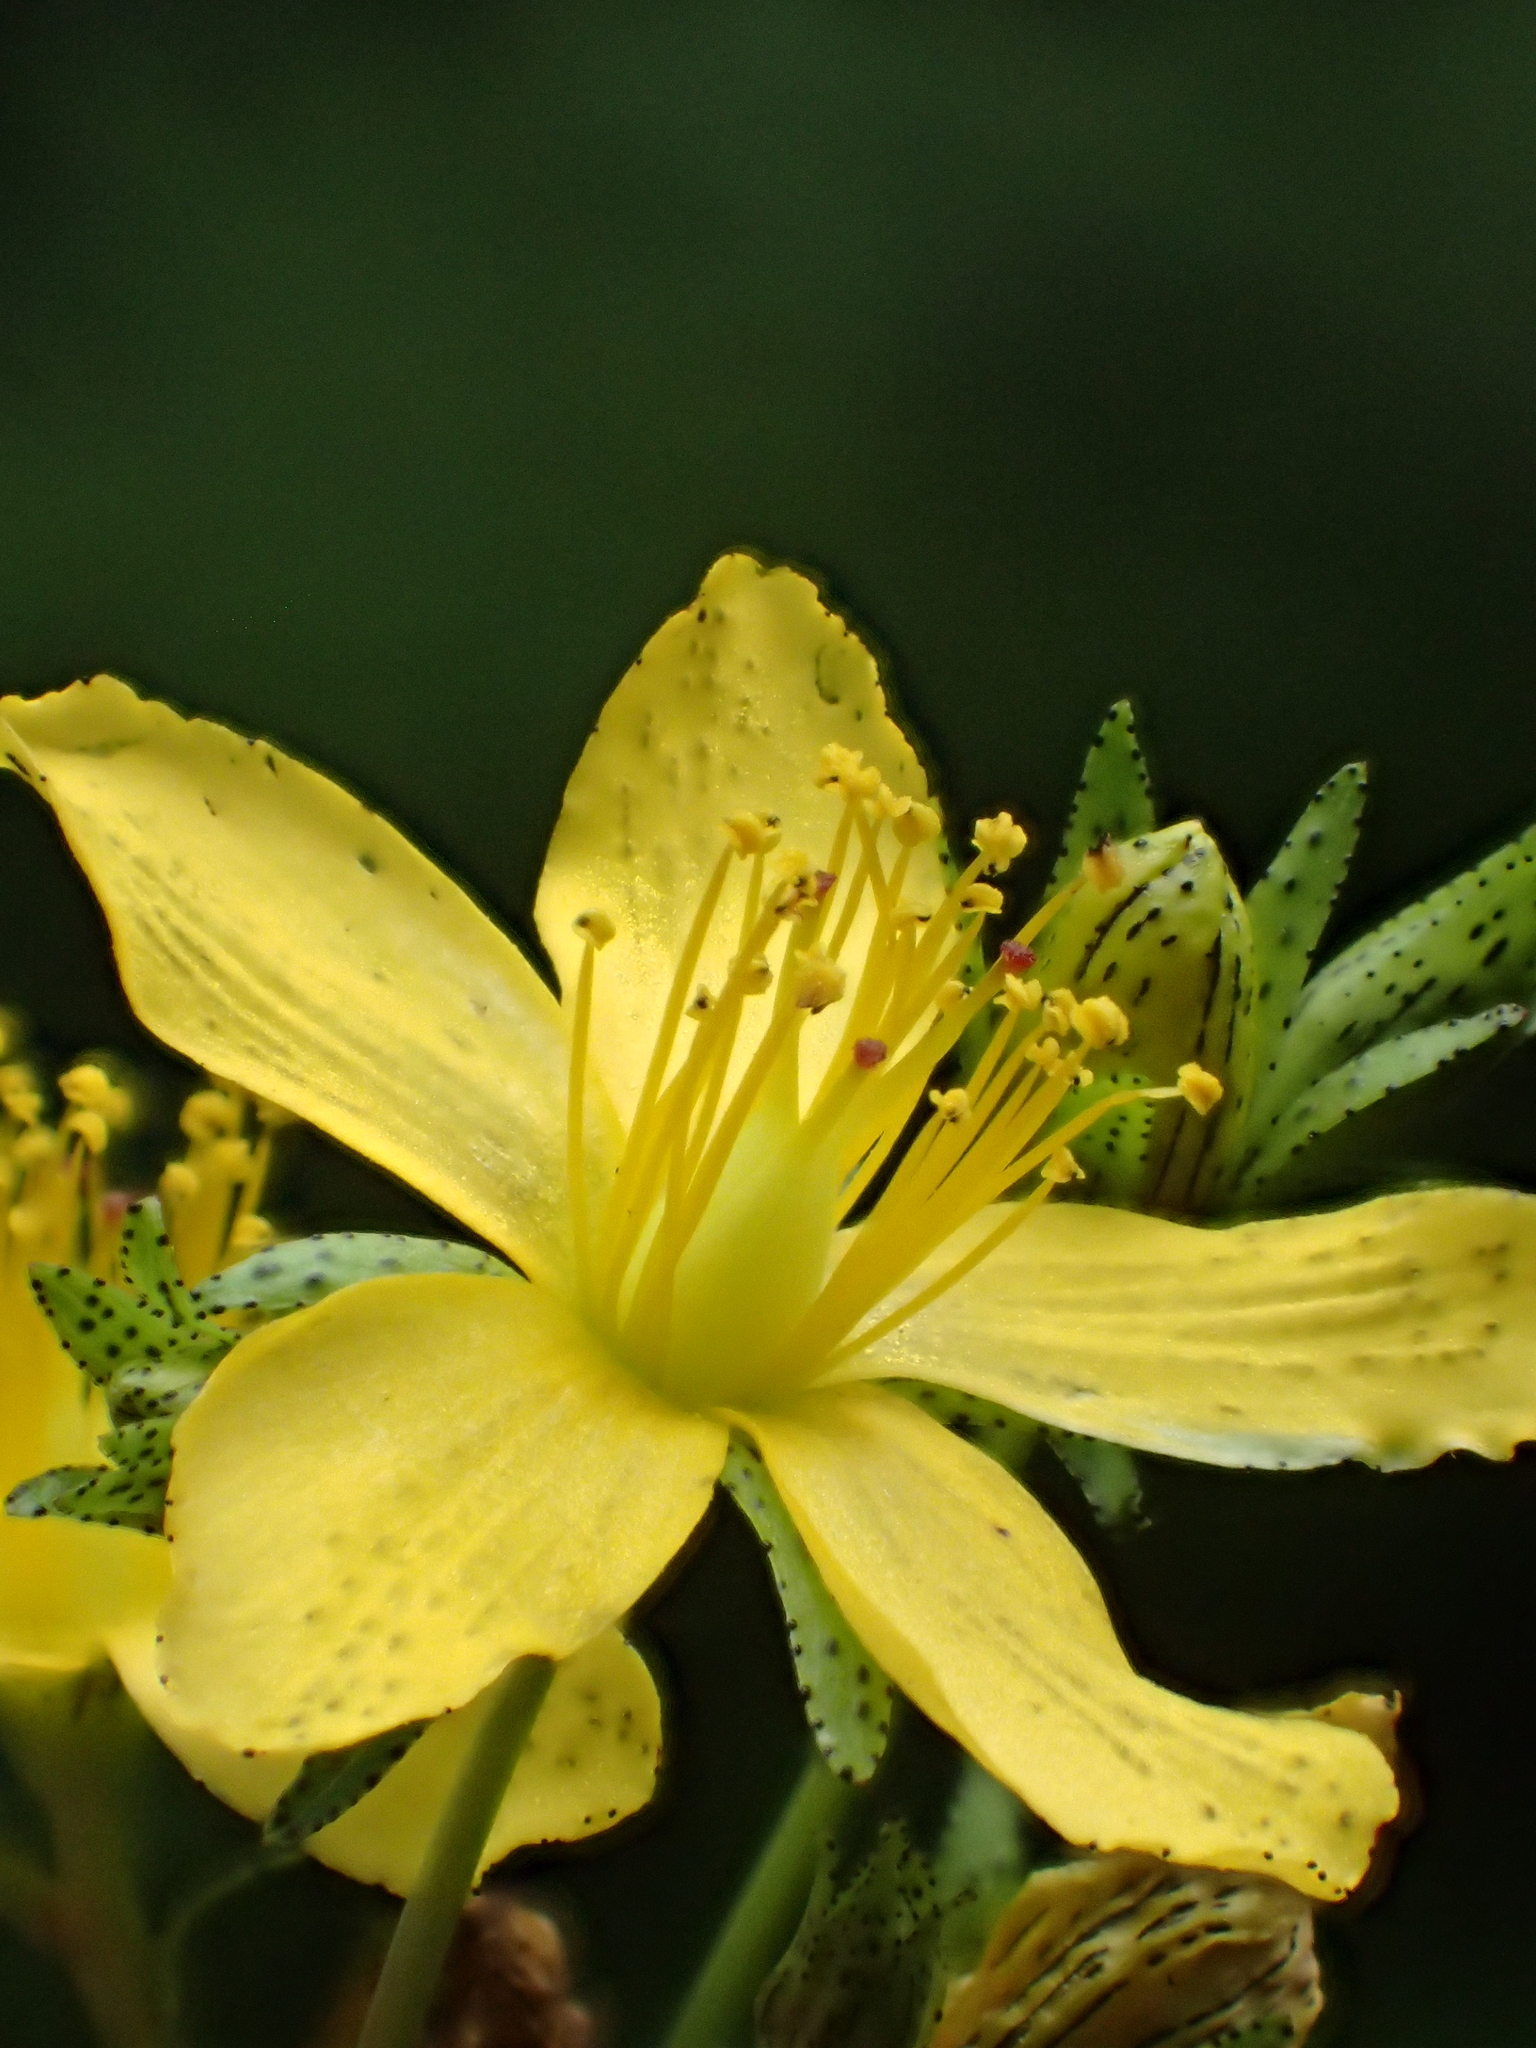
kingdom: Plantae
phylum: Tracheophyta
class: Magnoliopsida
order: Malpighiales
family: Hypericaceae
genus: Hypericum
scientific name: Hypericum taihezanense
